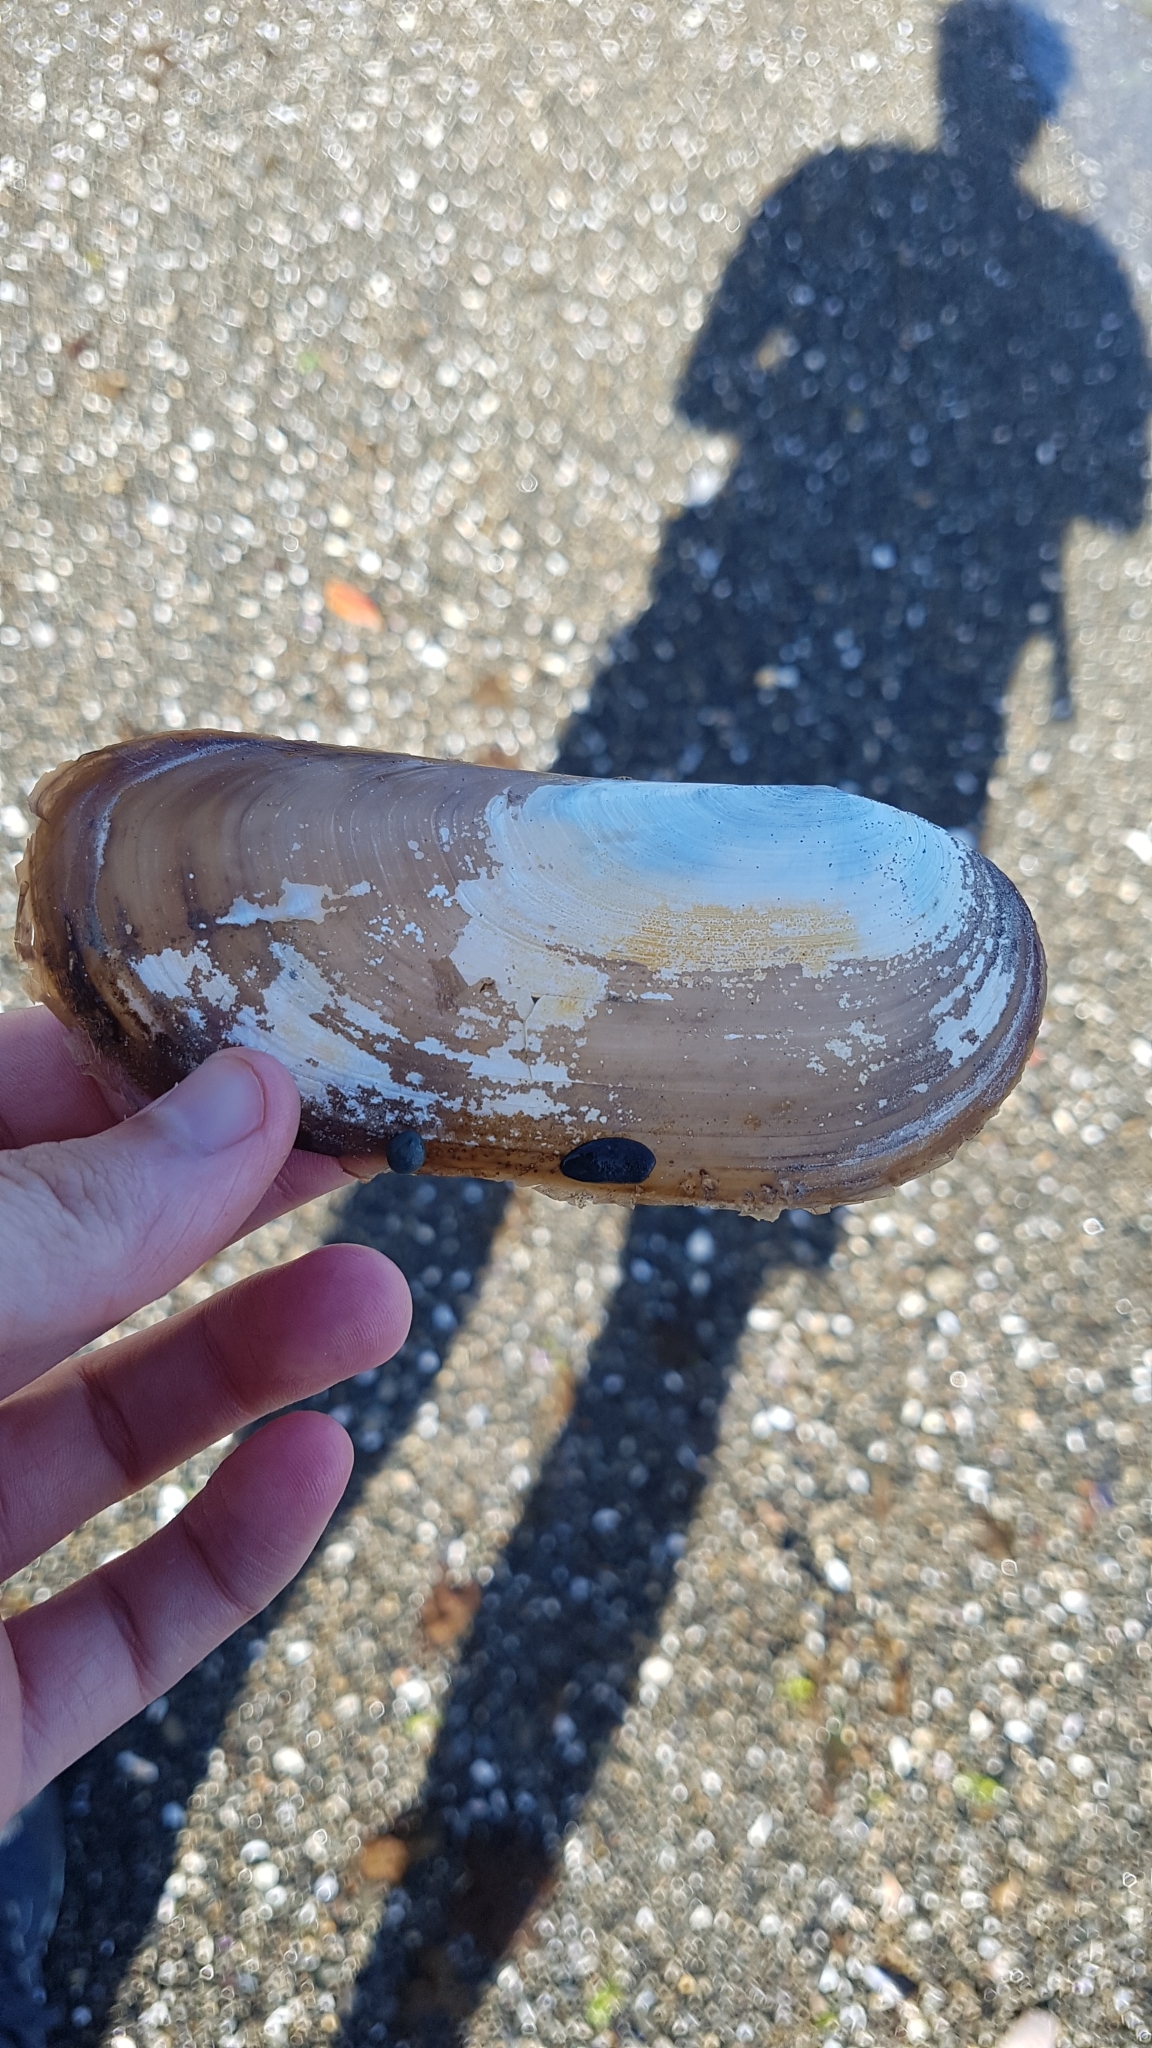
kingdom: Animalia
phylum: Mollusca
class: Bivalvia
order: Venerida
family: Mactridae
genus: Zenatia
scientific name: Zenatia acinaces
